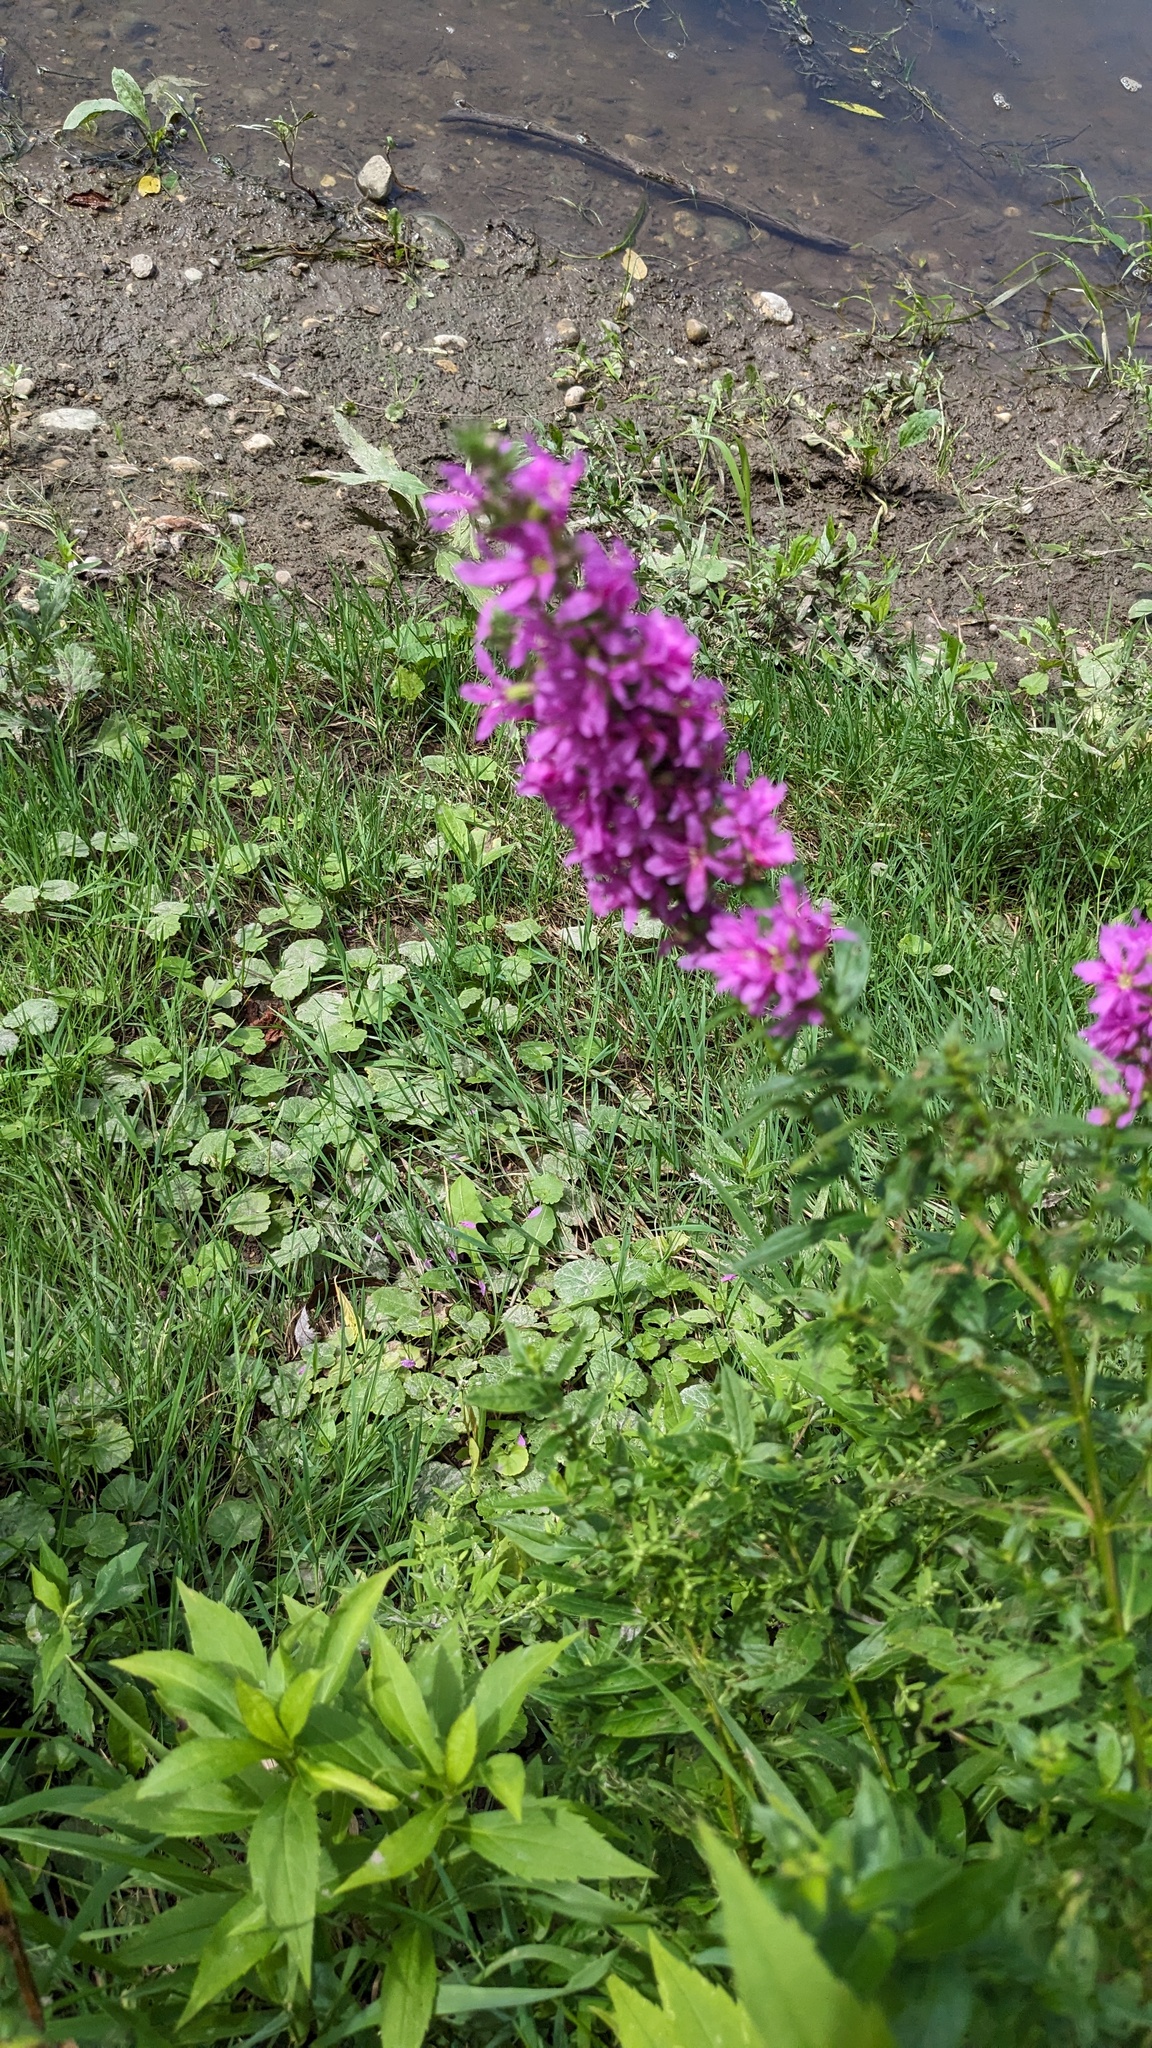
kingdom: Plantae
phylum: Tracheophyta
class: Magnoliopsida
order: Myrtales
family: Lythraceae
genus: Lythrum
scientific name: Lythrum salicaria
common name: Purple loosestrife
